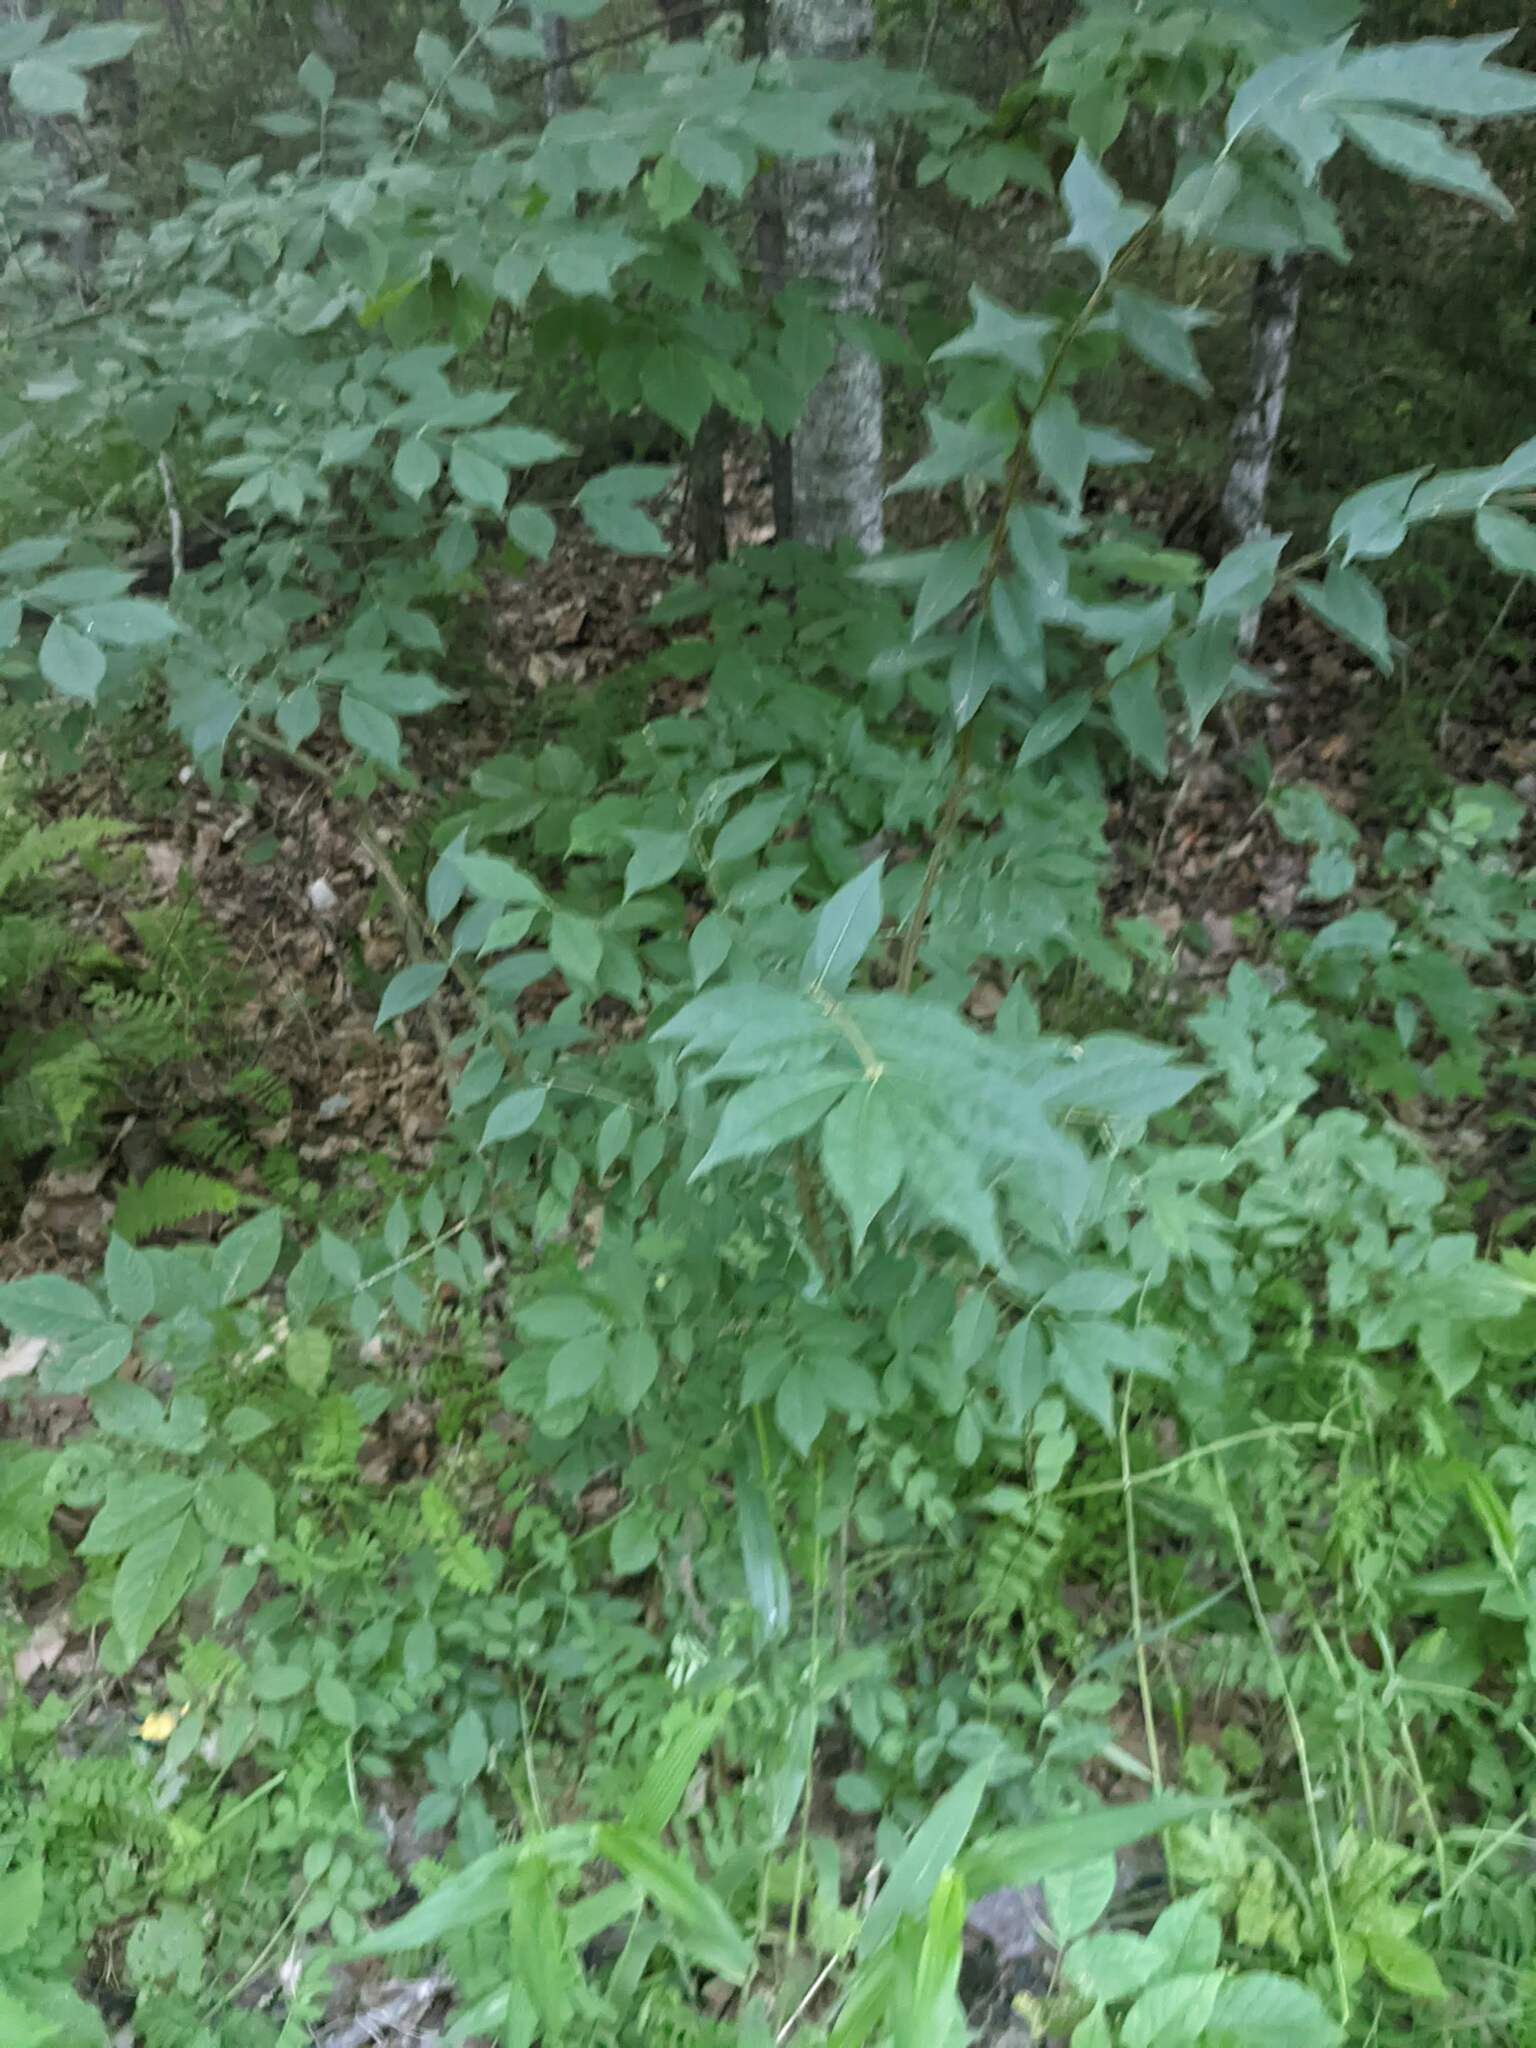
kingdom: Plantae
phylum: Tracheophyta
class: Magnoliopsida
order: Celastrales
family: Celastraceae
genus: Euonymus
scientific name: Euonymus alatus
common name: Winged euonymus
